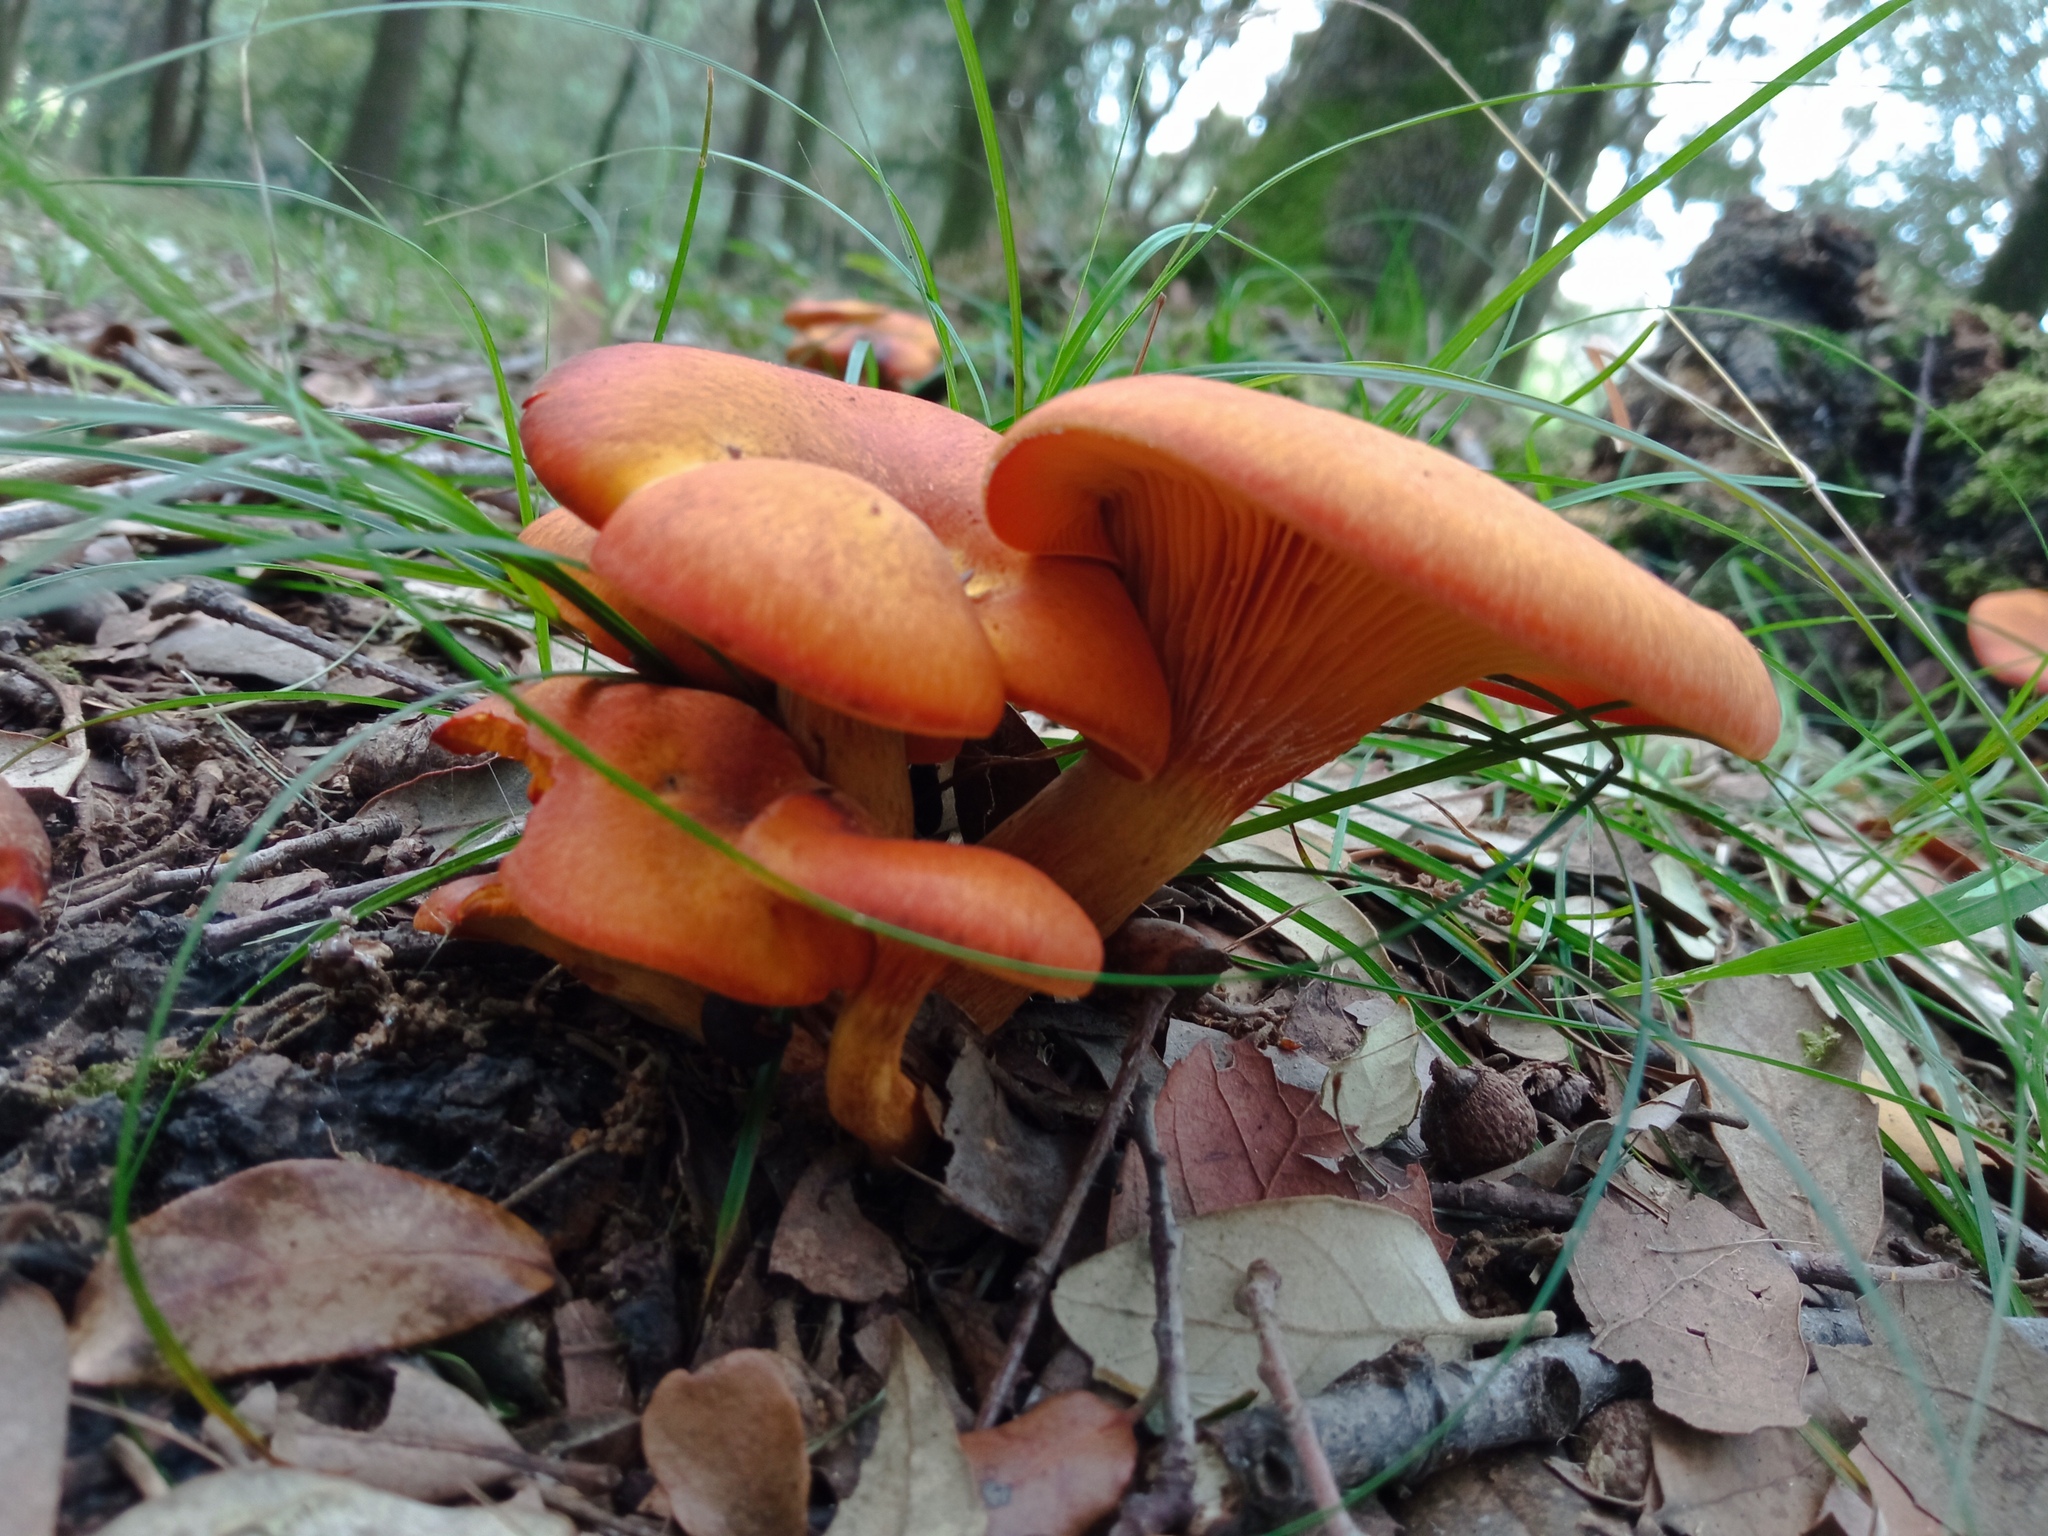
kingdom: Fungi
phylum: Basidiomycota
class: Agaricomycetes
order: Agaricales
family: Omphalotaceae
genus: Omphalotus
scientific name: Omphalotus olearius
